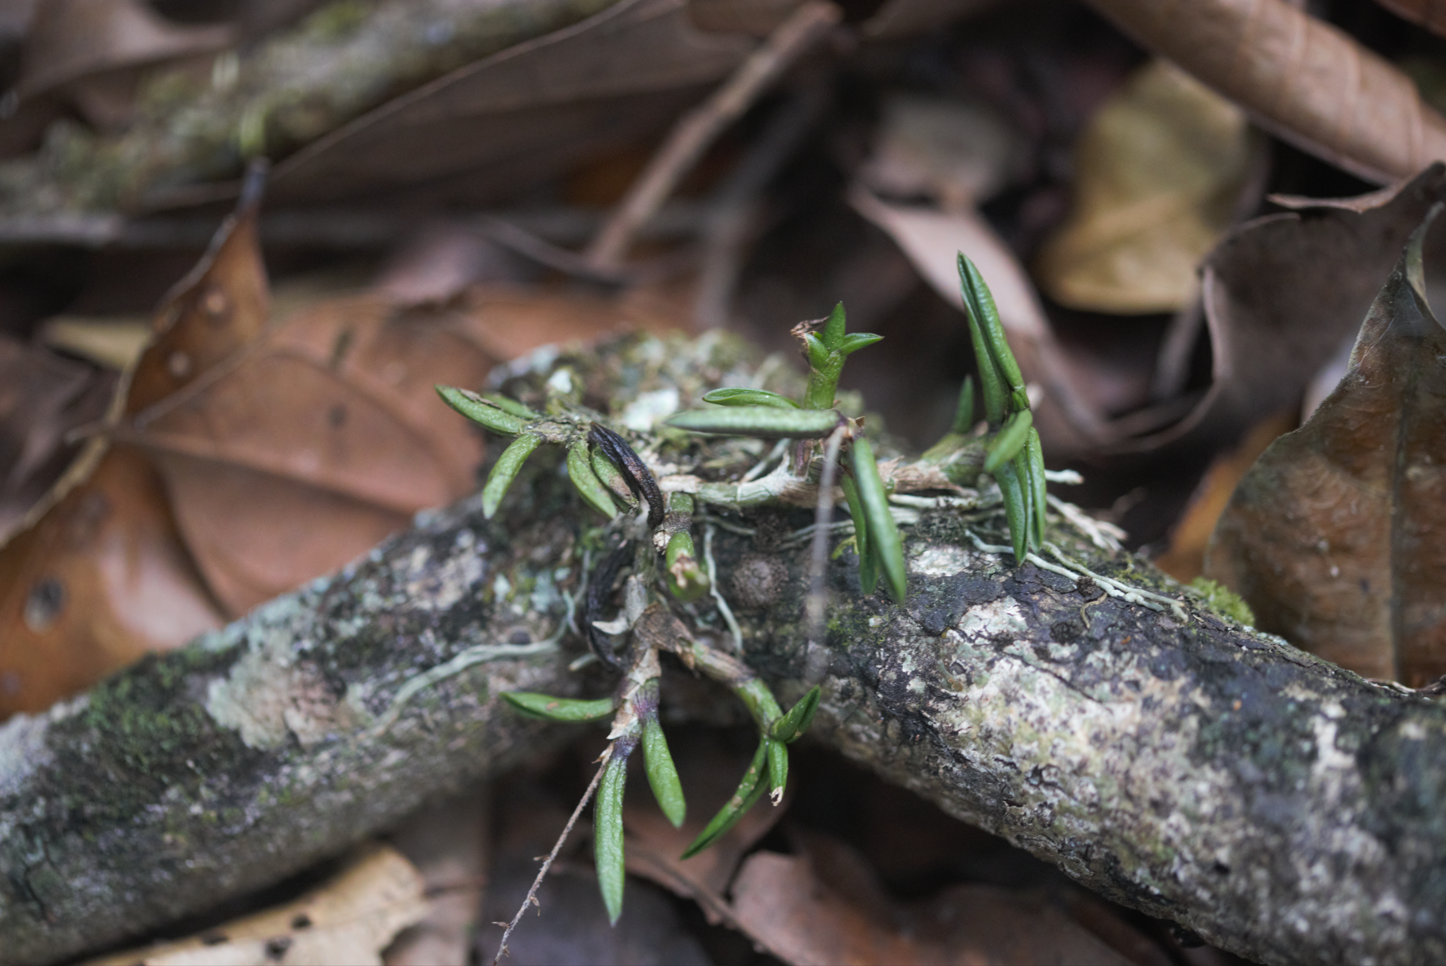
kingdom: Plantae
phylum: Tracheophyta
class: Liliopsida
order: Asparagales
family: Orchidaceae
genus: Epidendrum
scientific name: Epidendrum microphyllum
